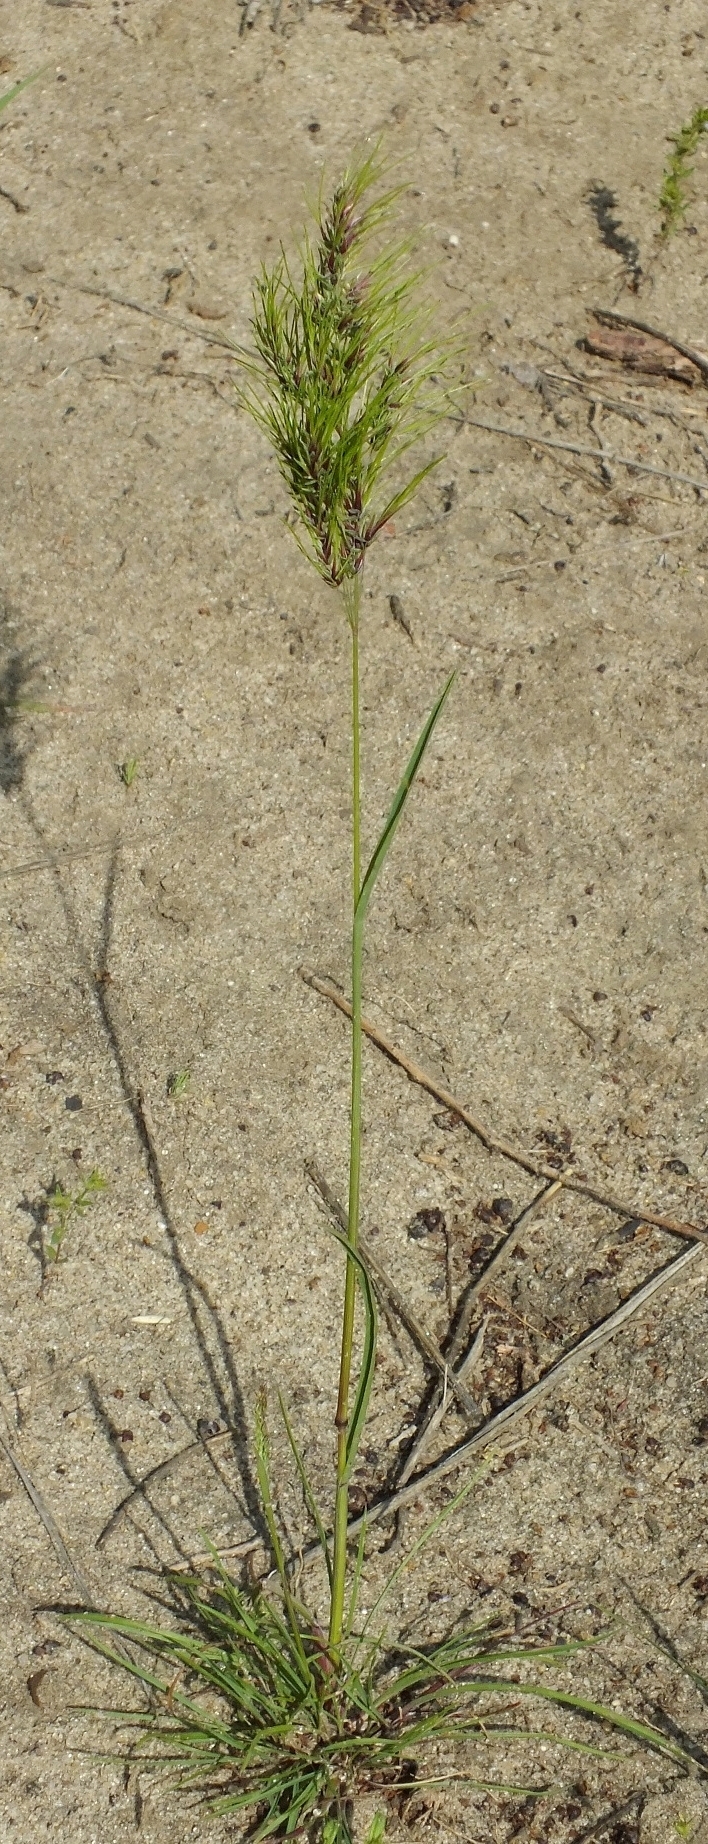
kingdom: Plantae
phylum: Tracheophyta
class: Liliopsida
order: Poales
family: Poaceae
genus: Poa
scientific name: Poa bulbosa
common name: Bulbous bluegrass
